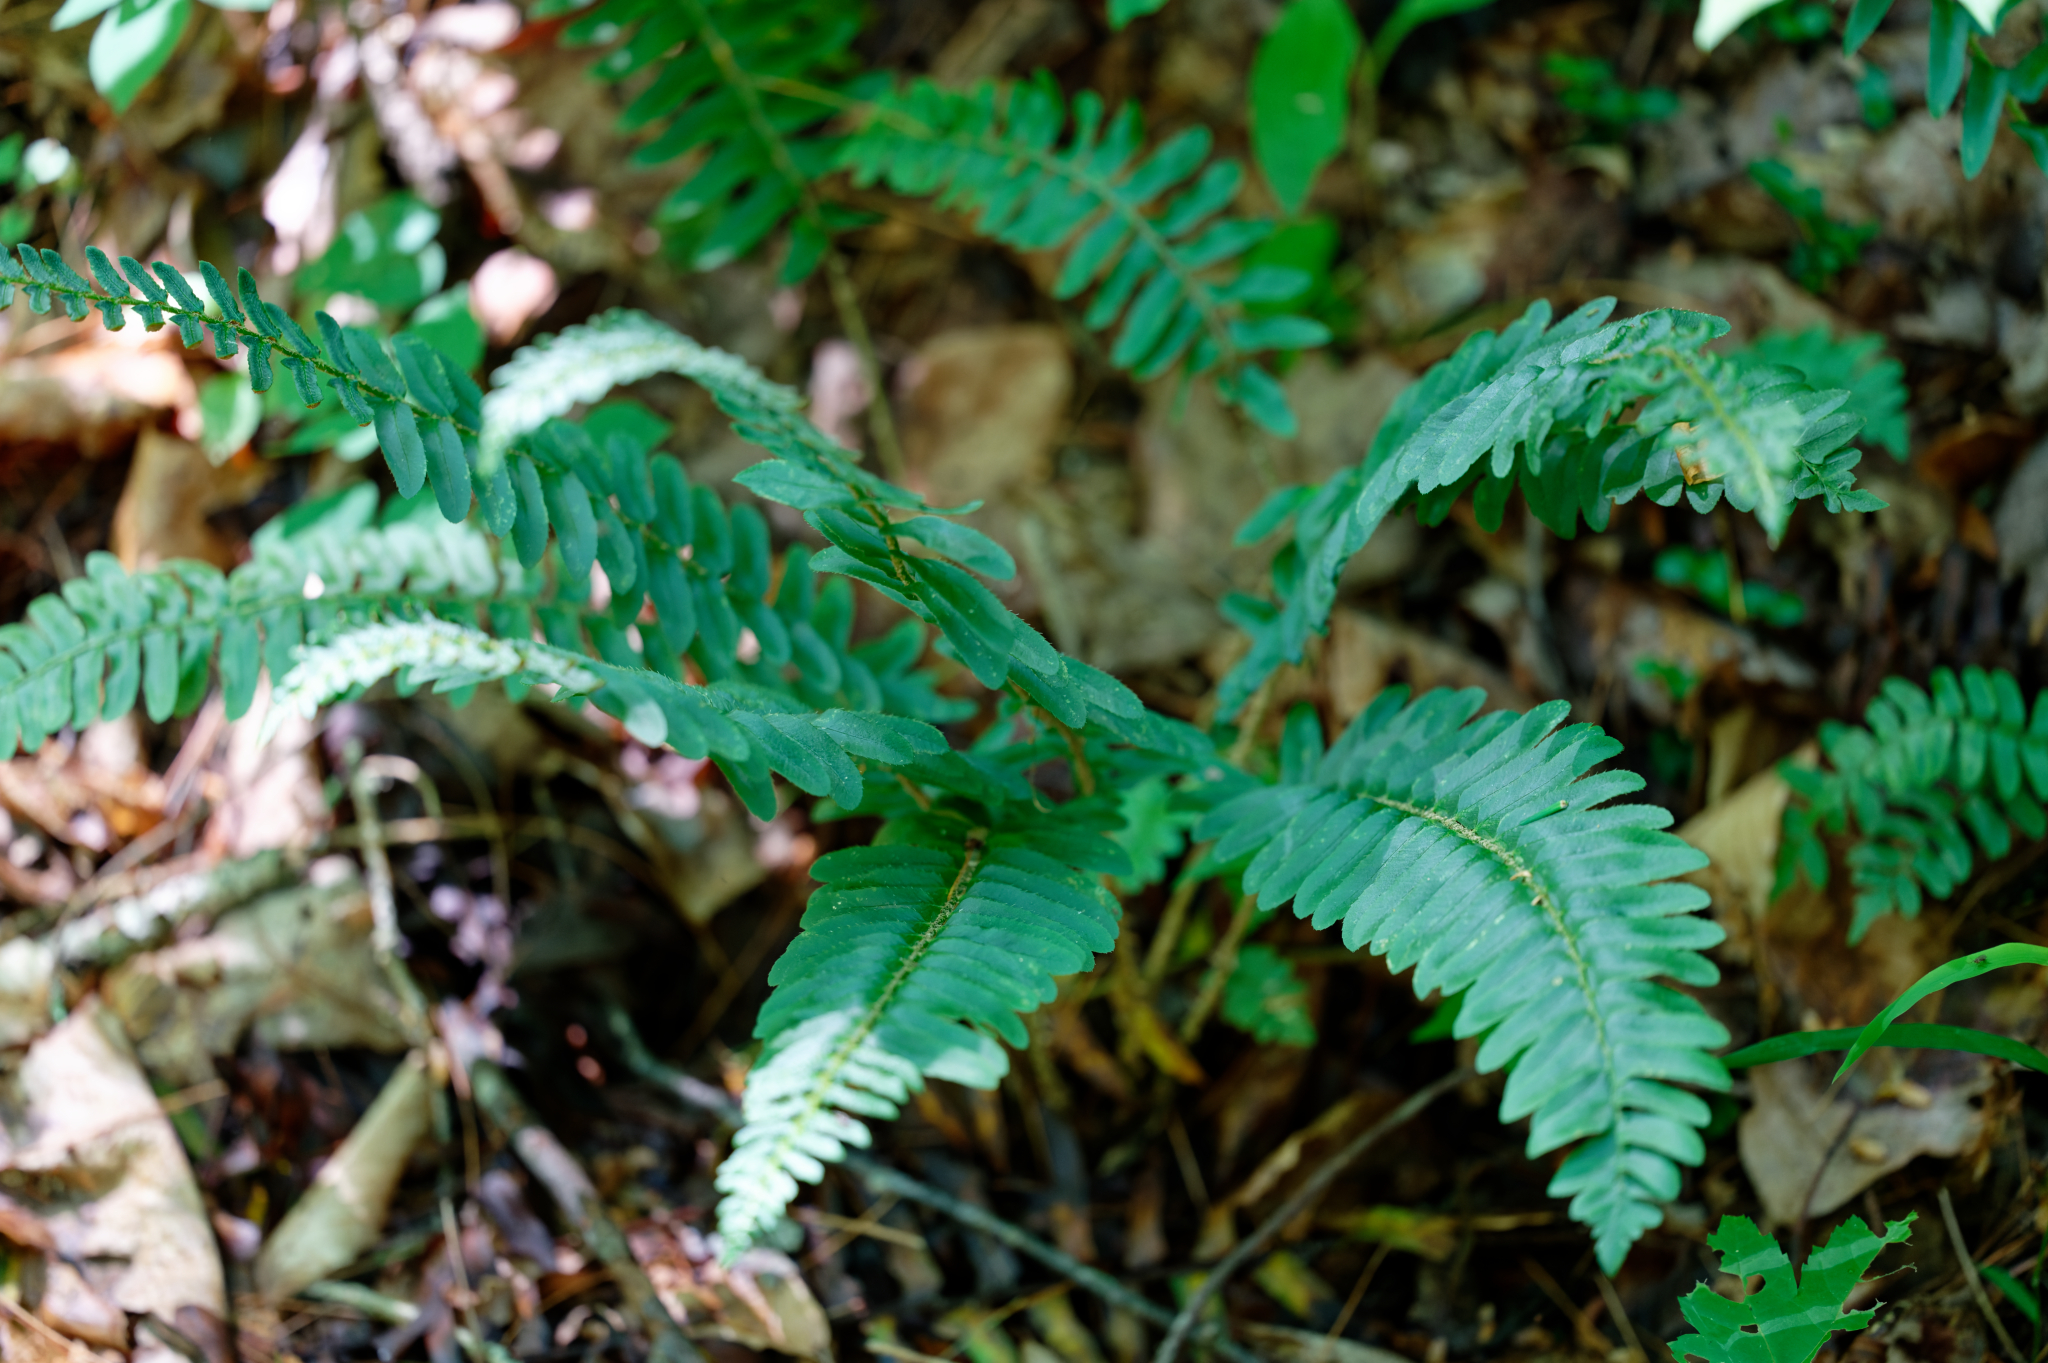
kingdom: Plantae
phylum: Tracheophyta
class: Polypodiopsida
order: Polypodiales
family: Dryopteridaceae
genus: Polystichum
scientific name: Polystichum acrostichoides
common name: Christmas fern
